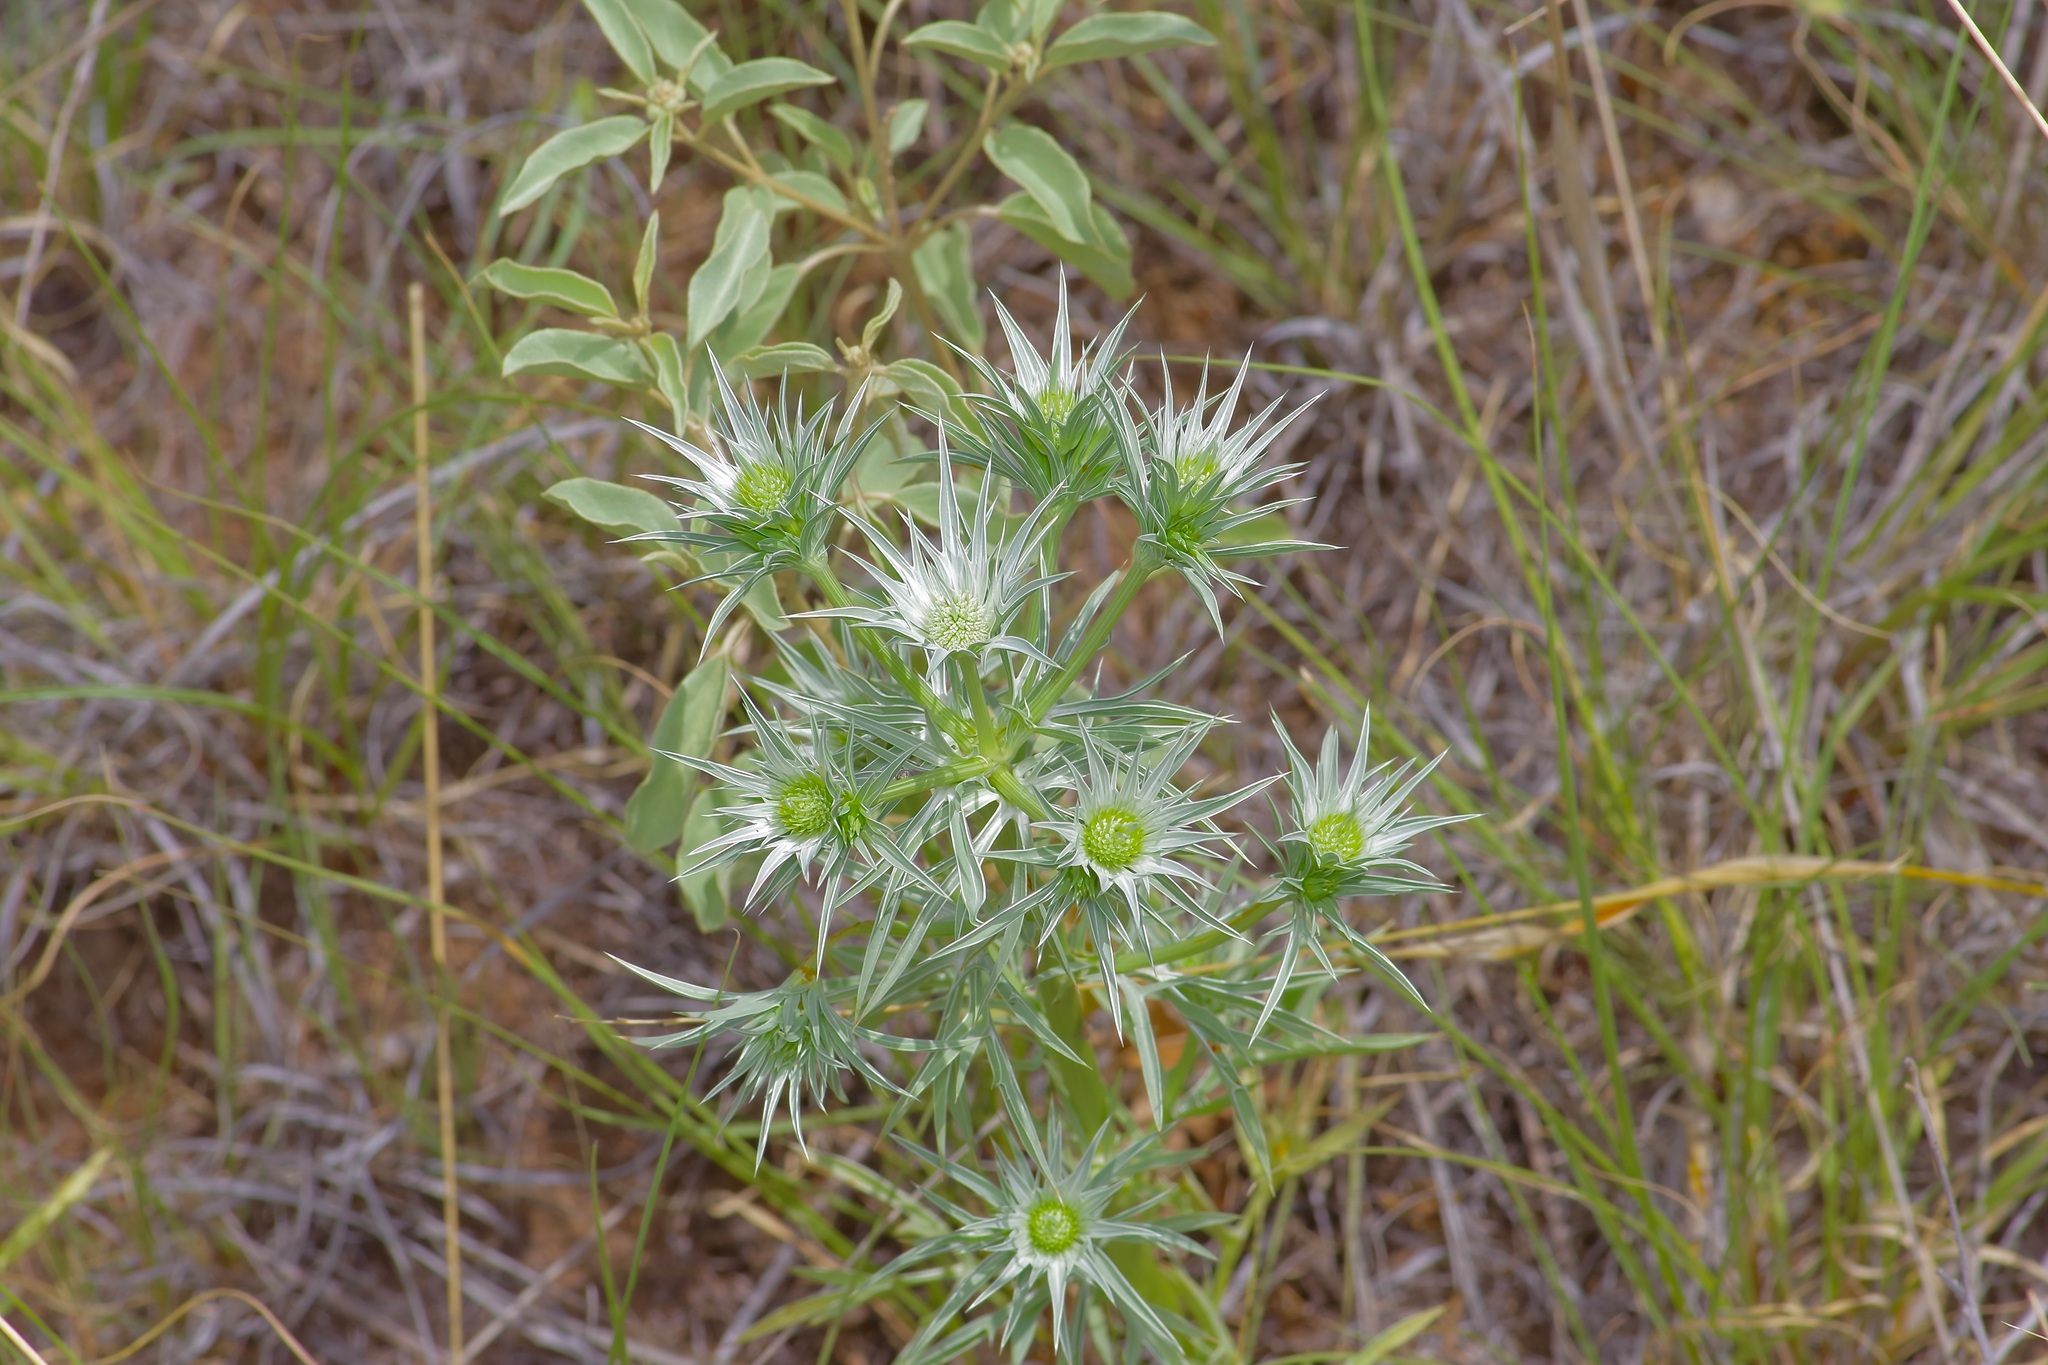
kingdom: Plantae
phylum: Tracheophyta
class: Magnoliopsida
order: Apiales
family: Apiaceae
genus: Eryngium
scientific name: Eryngium heterophyllum
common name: Mexican thistle
